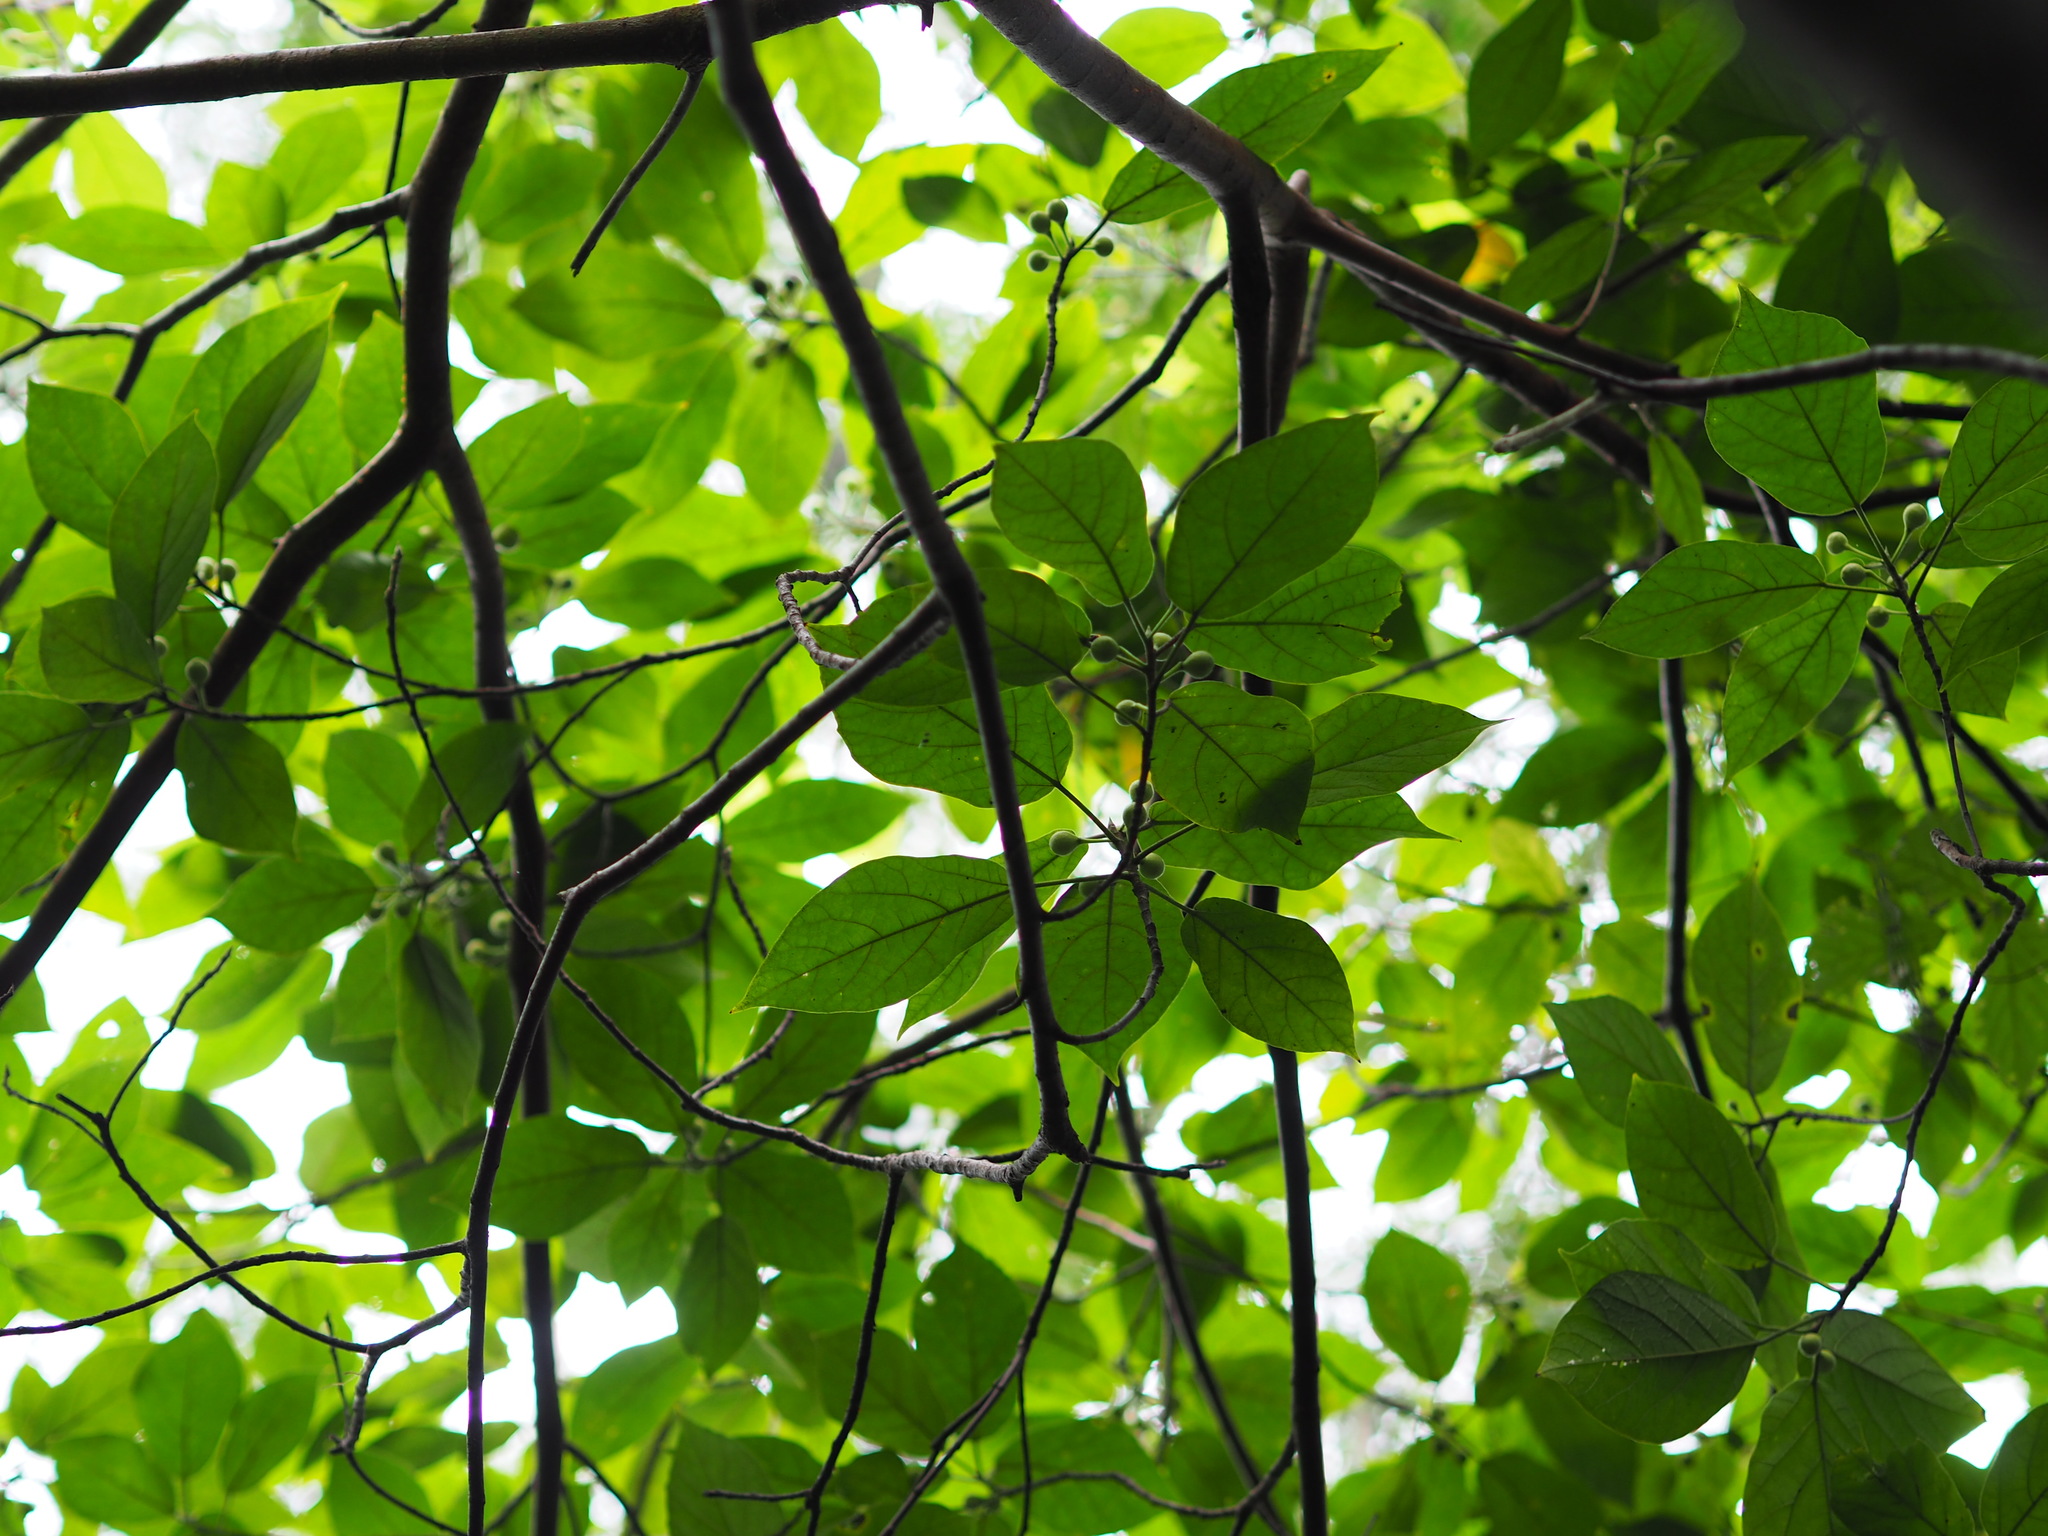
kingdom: Plantae
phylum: Tracheophyta
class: Magnoliopsida
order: Rosales
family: Moraceae
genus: Ficus
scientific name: Ficus erecta
